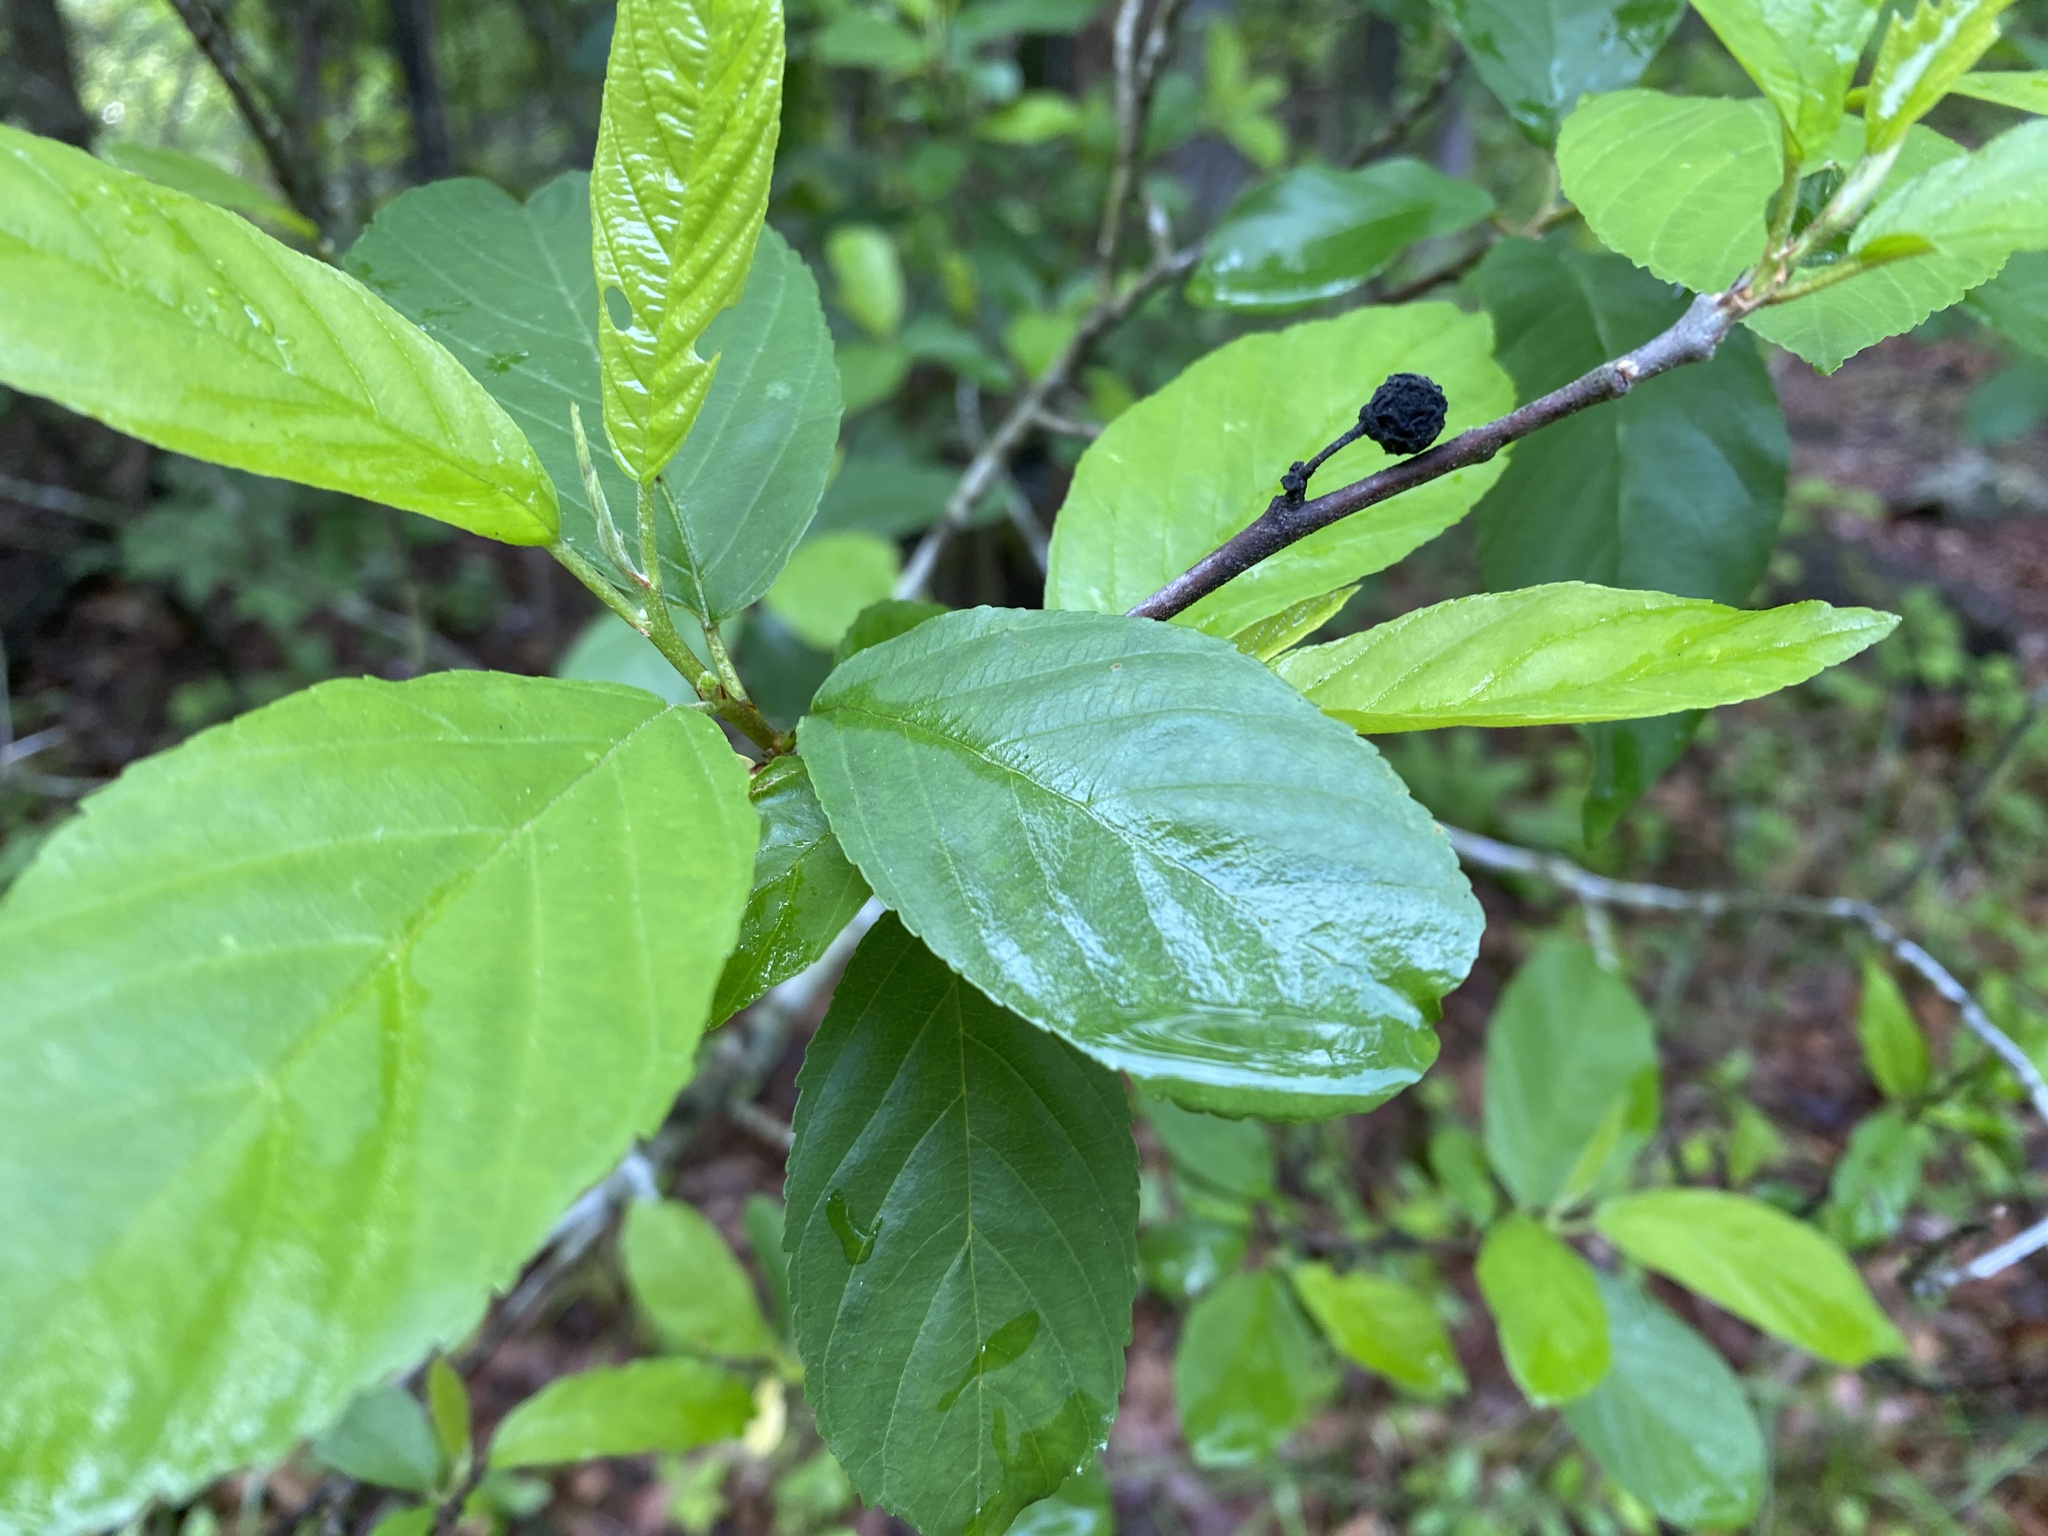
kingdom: Plantae
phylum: Tracheophyta
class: Magnoliopsida
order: Rosales
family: Rhamnaceae
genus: Frangula
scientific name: Frangula caroliniana
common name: Carolina buckthorn
